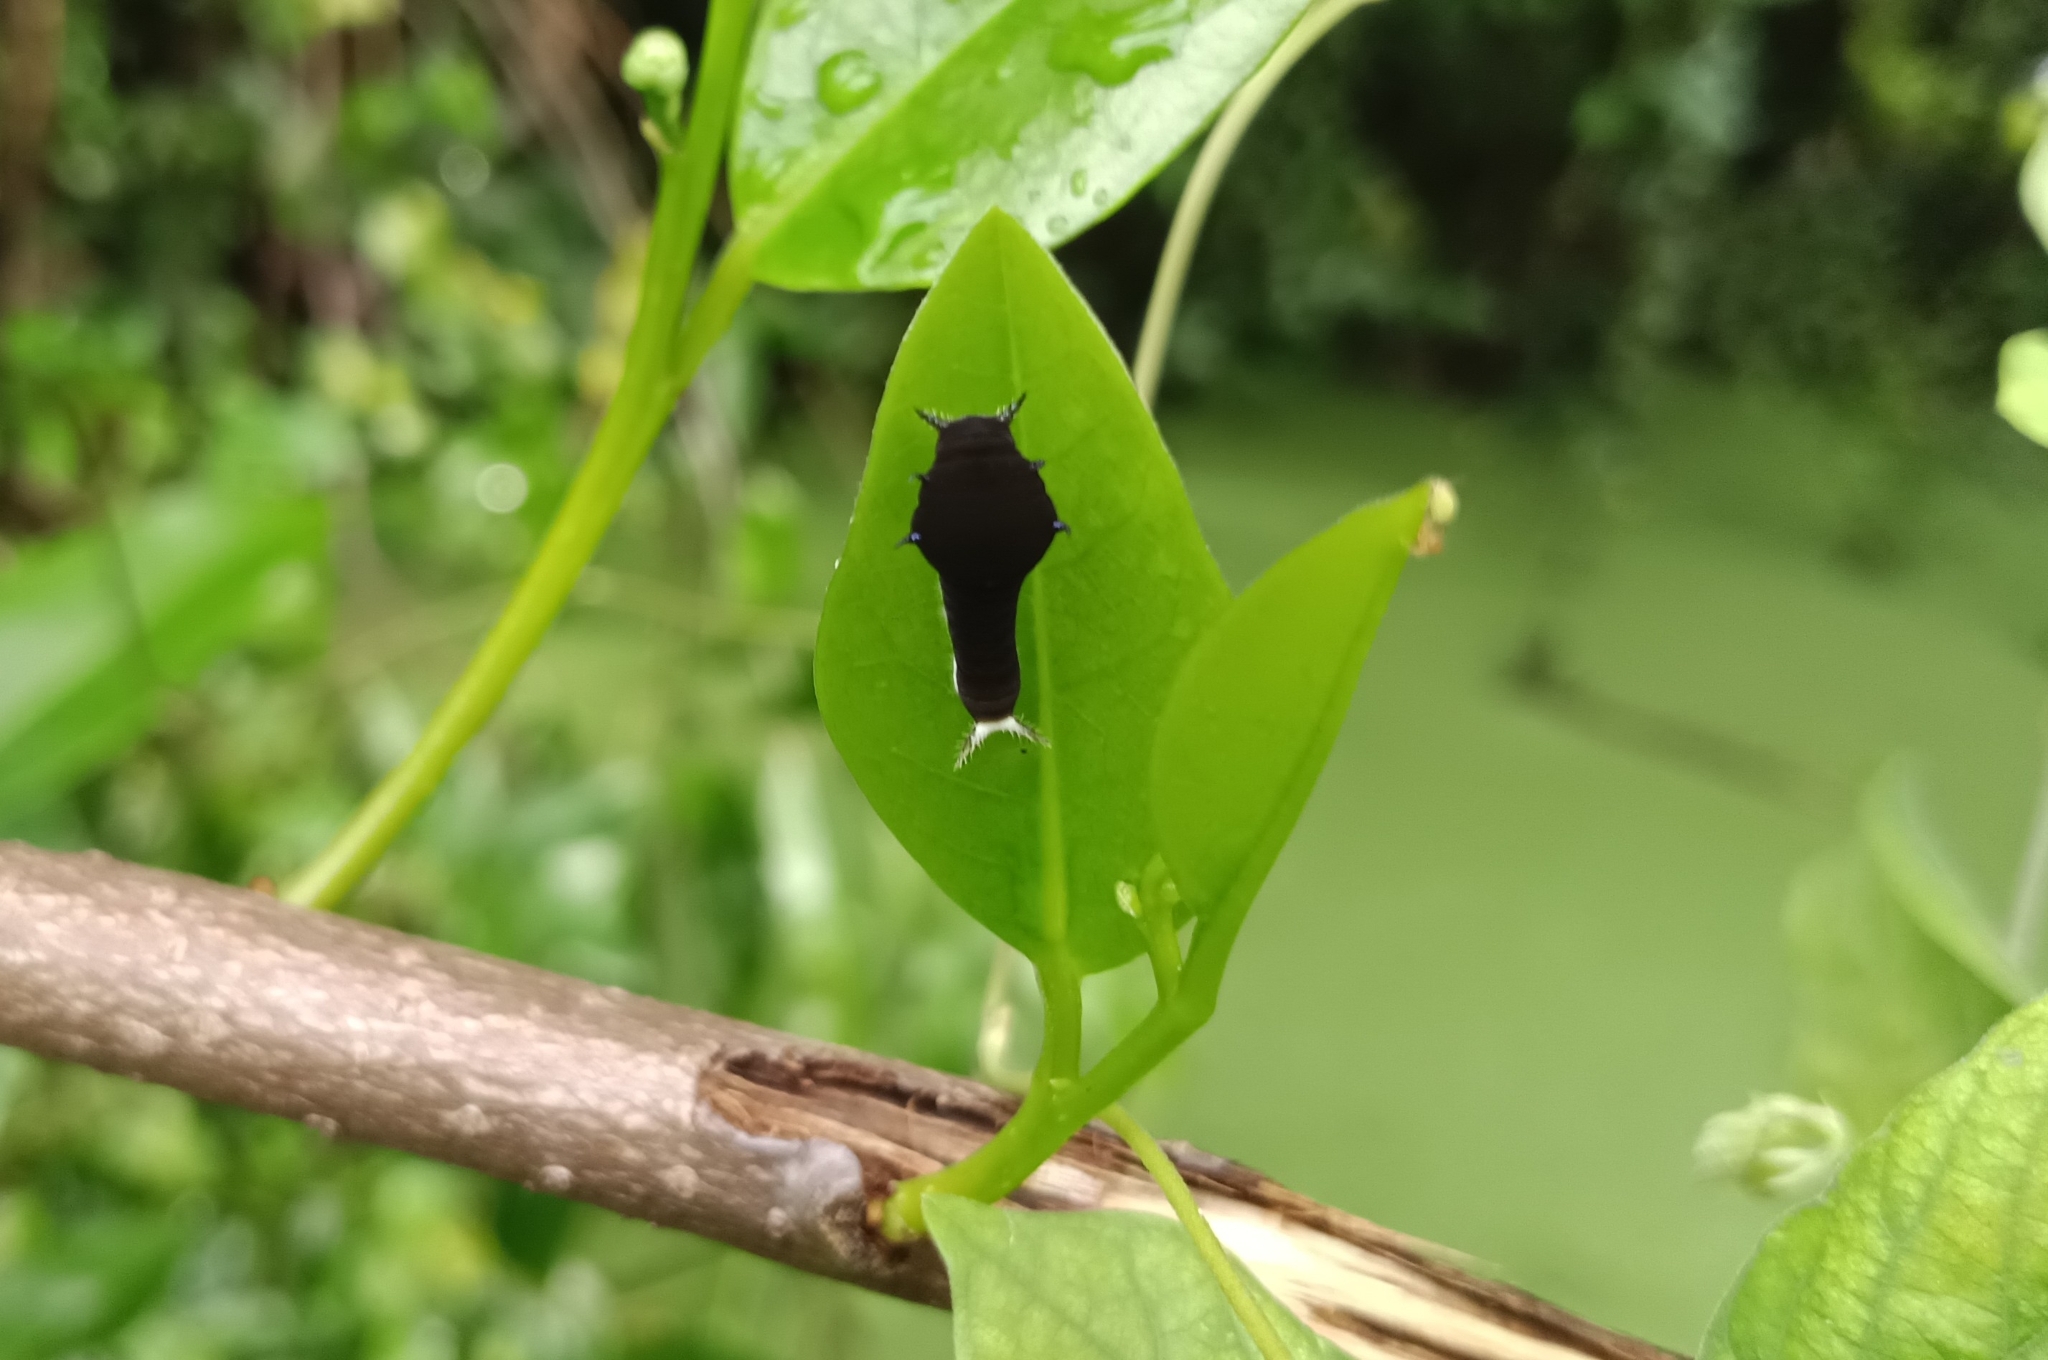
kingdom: Animalia
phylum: Arthropoda
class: Insecta
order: Lepidoptera
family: Papilionidae
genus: Graphium
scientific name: Graphium doson
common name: Common jay
